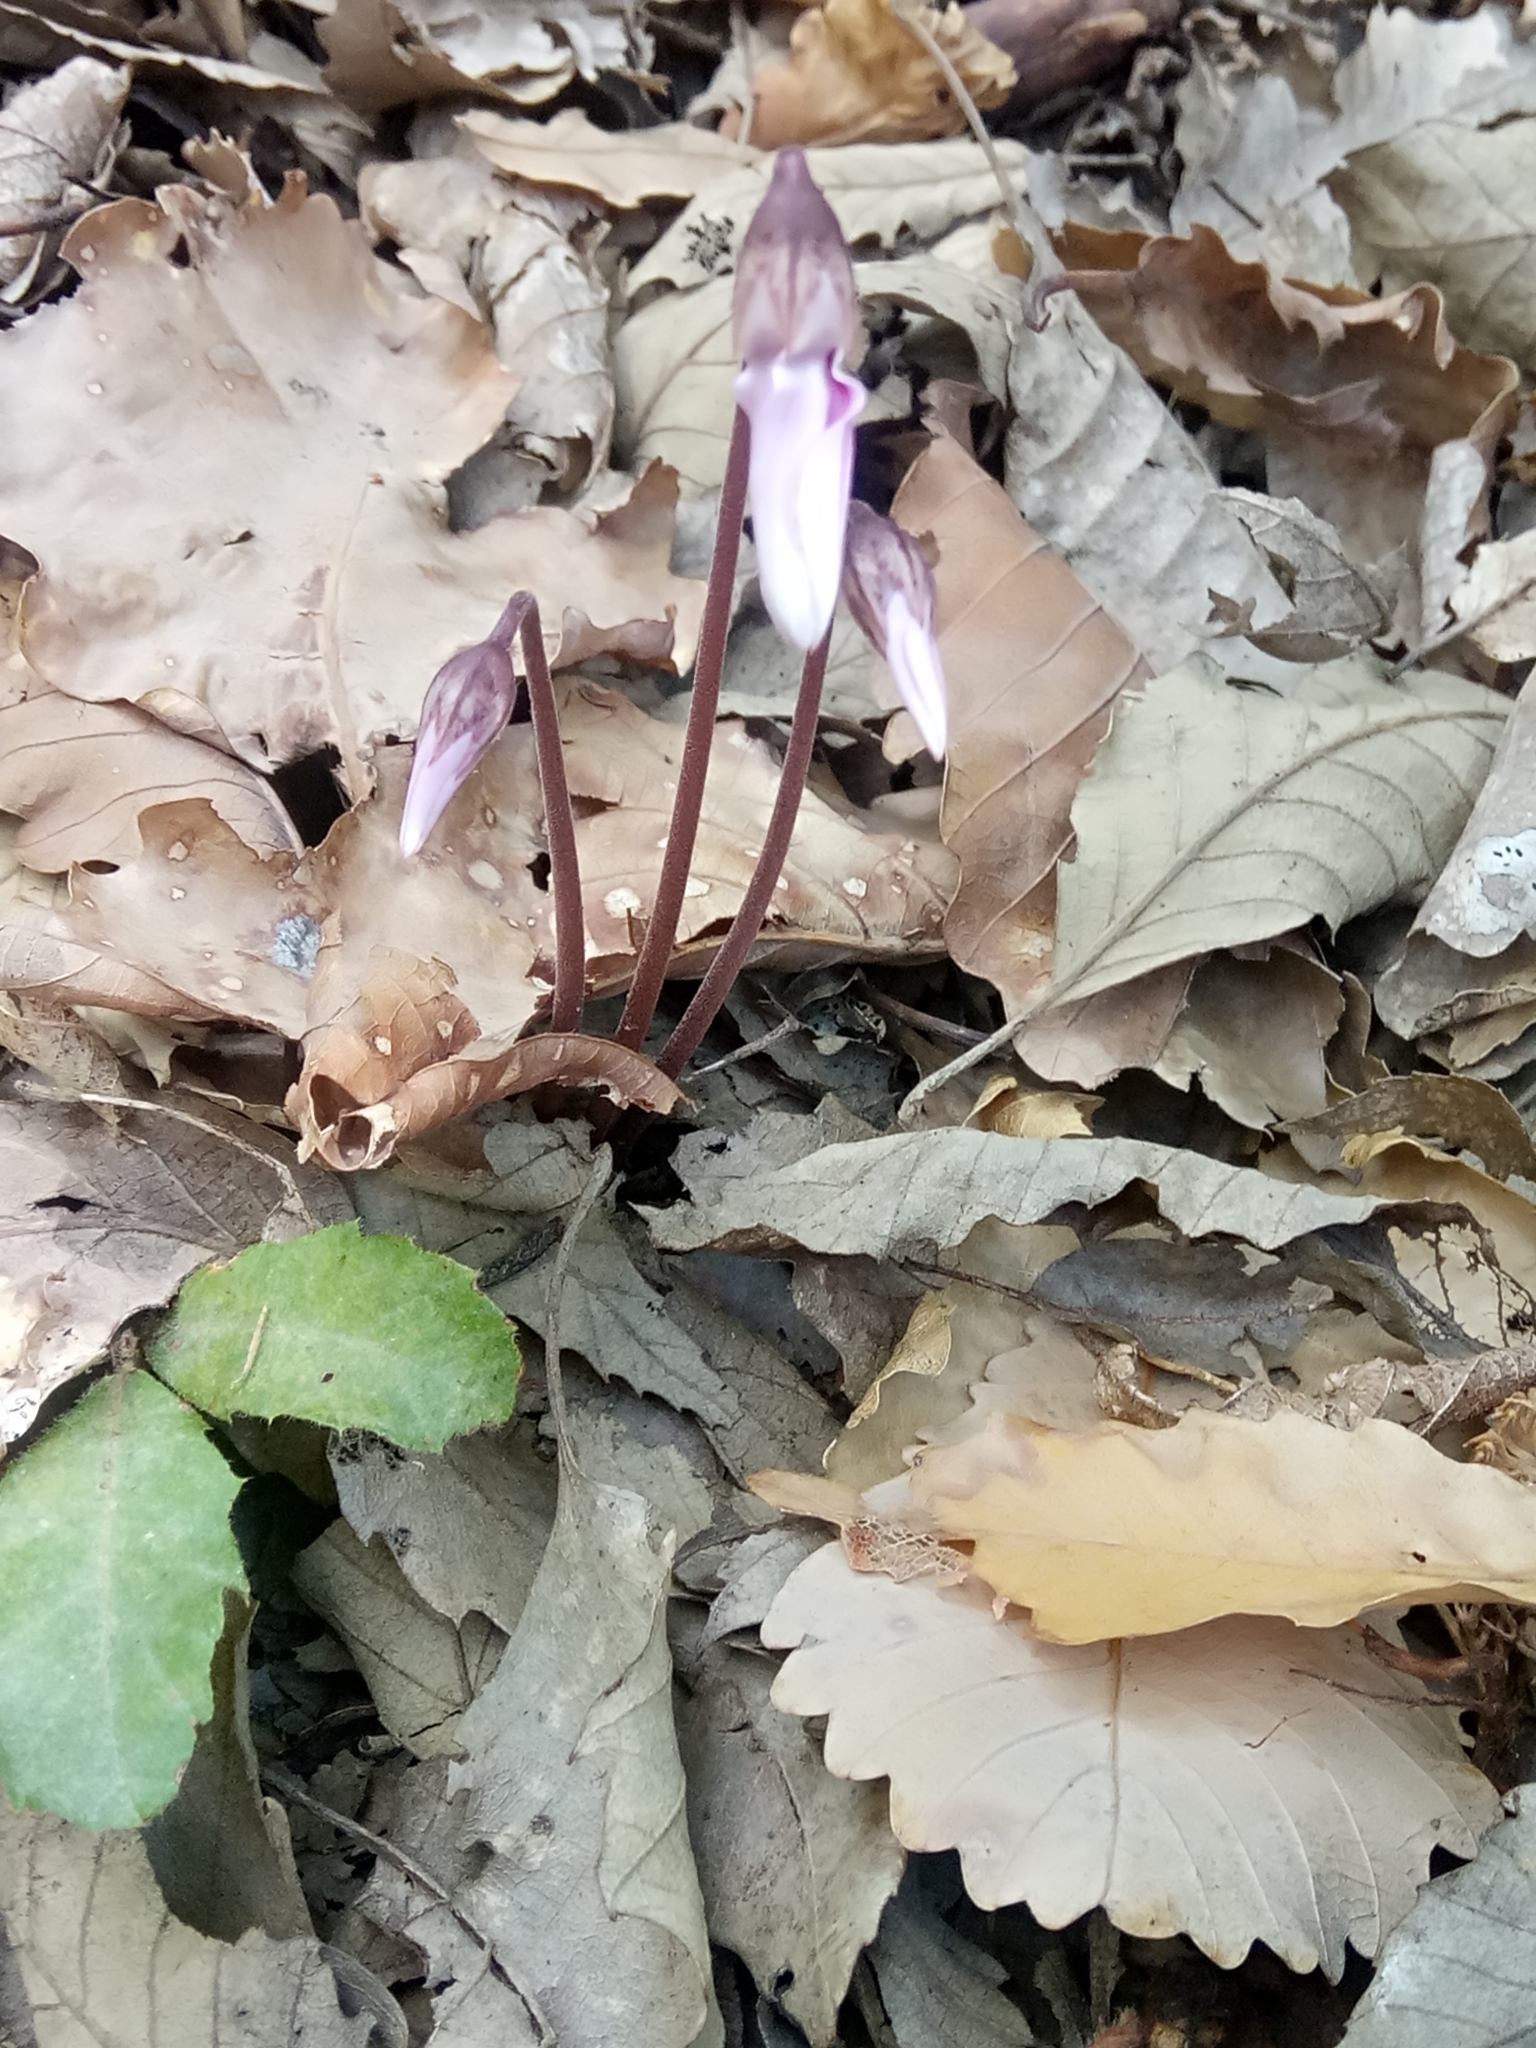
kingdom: Plantae
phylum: Tracheophyta
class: Magnoliopsida
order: Ericales
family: Primulaceae
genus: Cyclamen
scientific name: Cyclamen africanum
